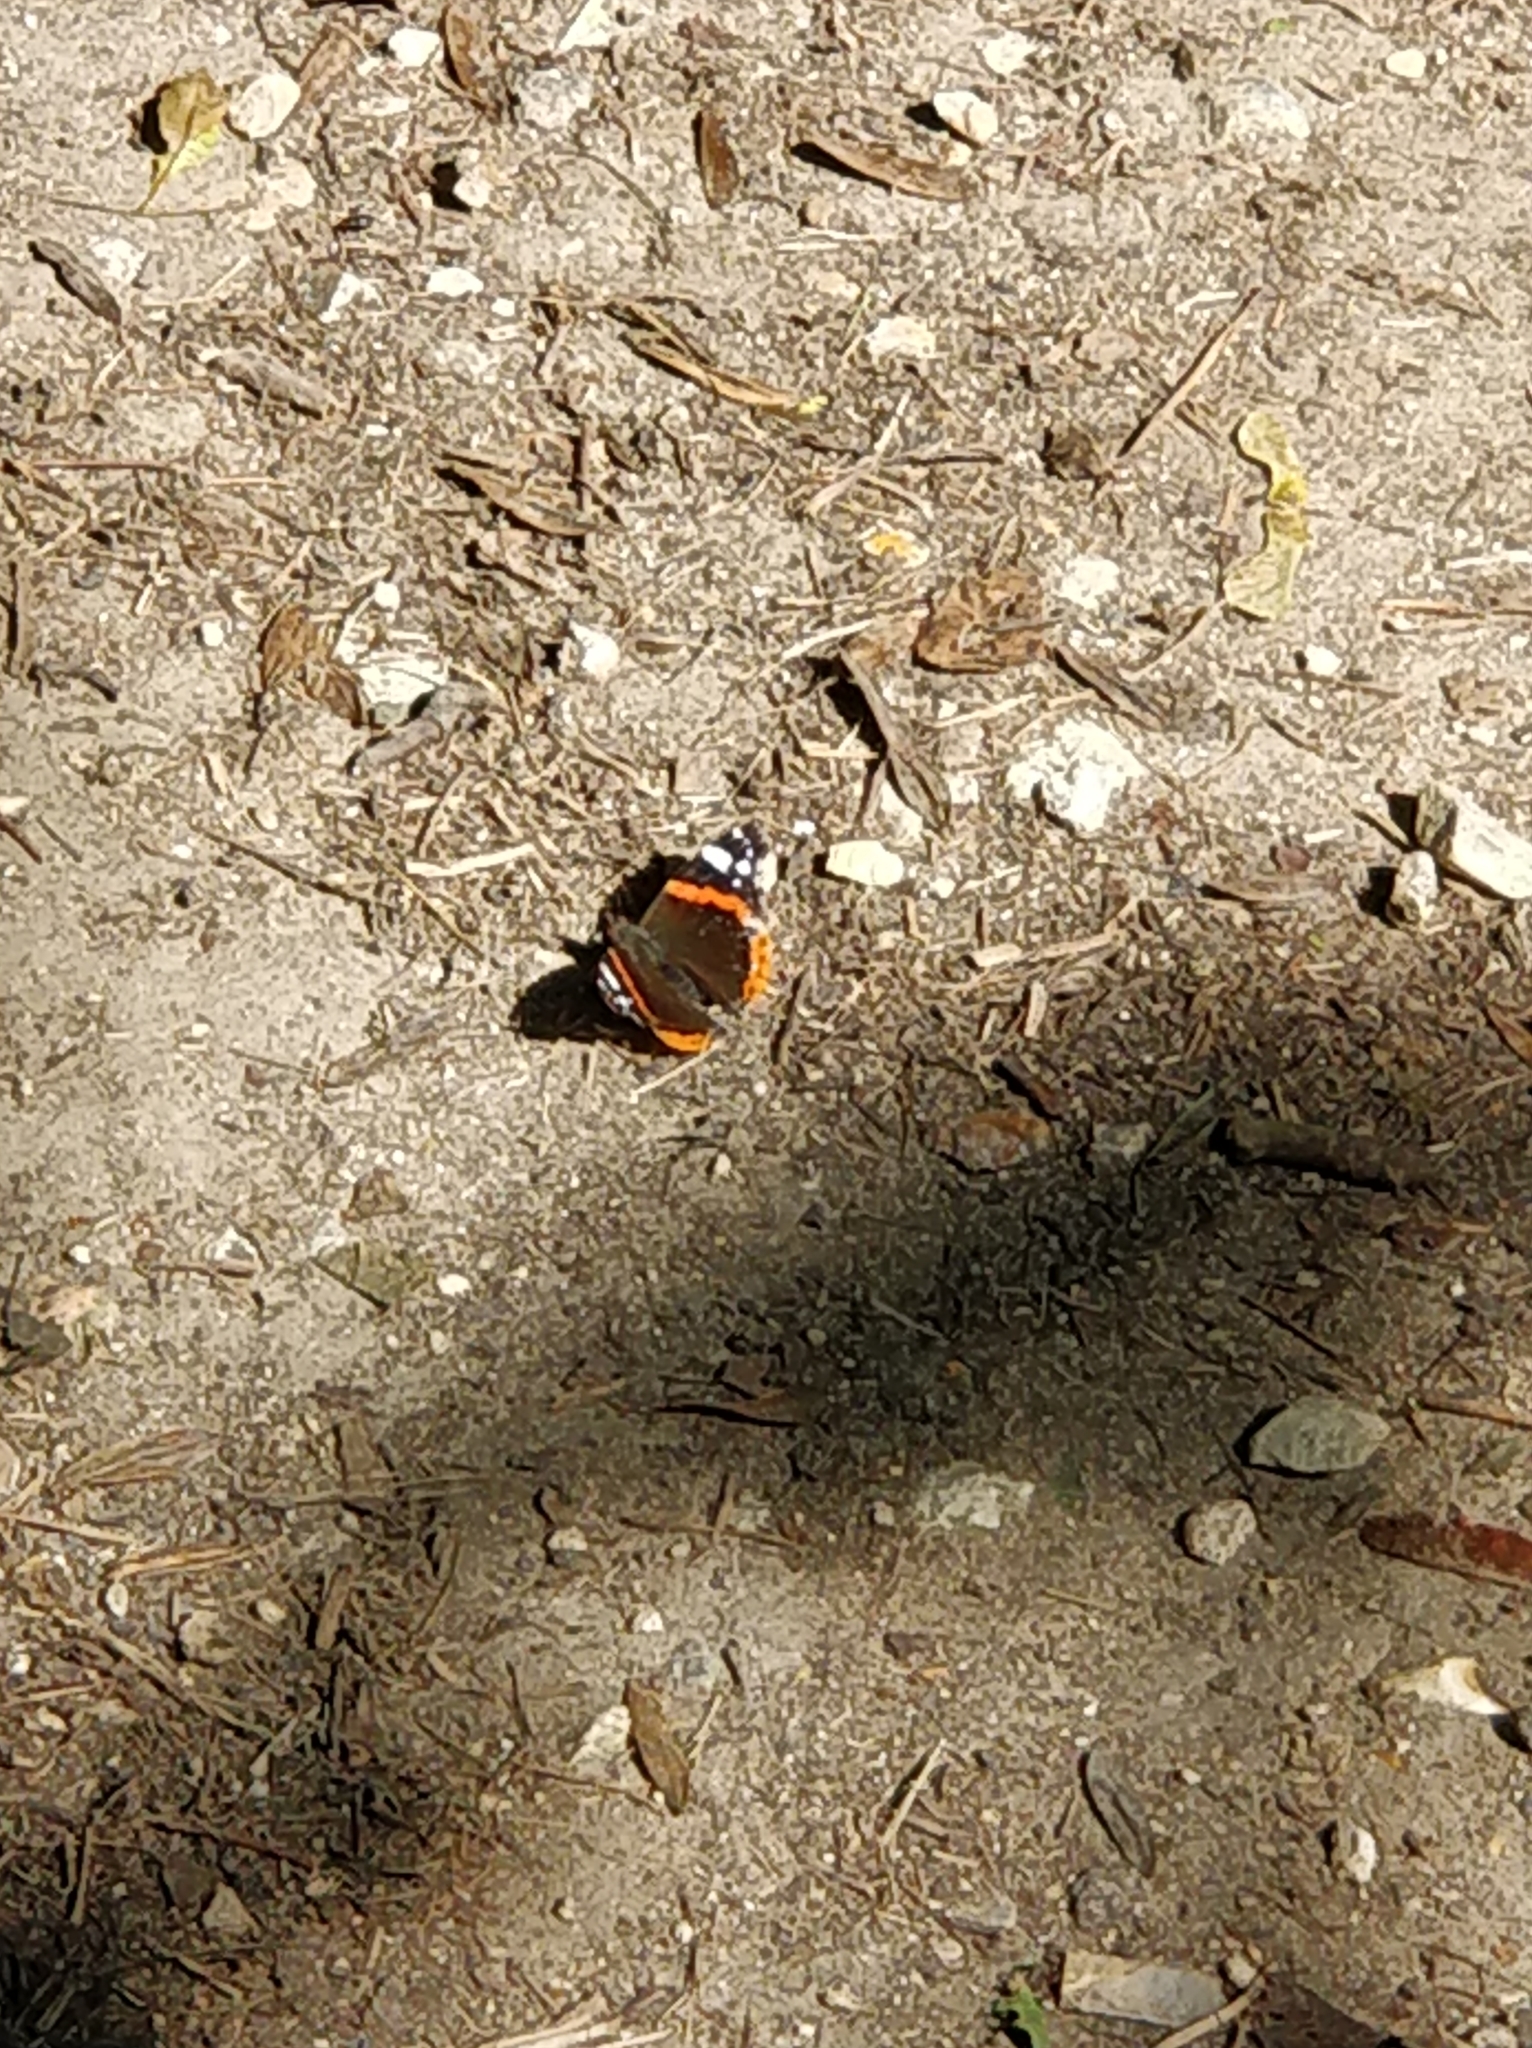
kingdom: Animalia
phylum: Arthropoda
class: Insecta
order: Lepidoptera
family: Nymphalidae
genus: Vanessa
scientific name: Vanessa atalanta
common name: Red admiral
